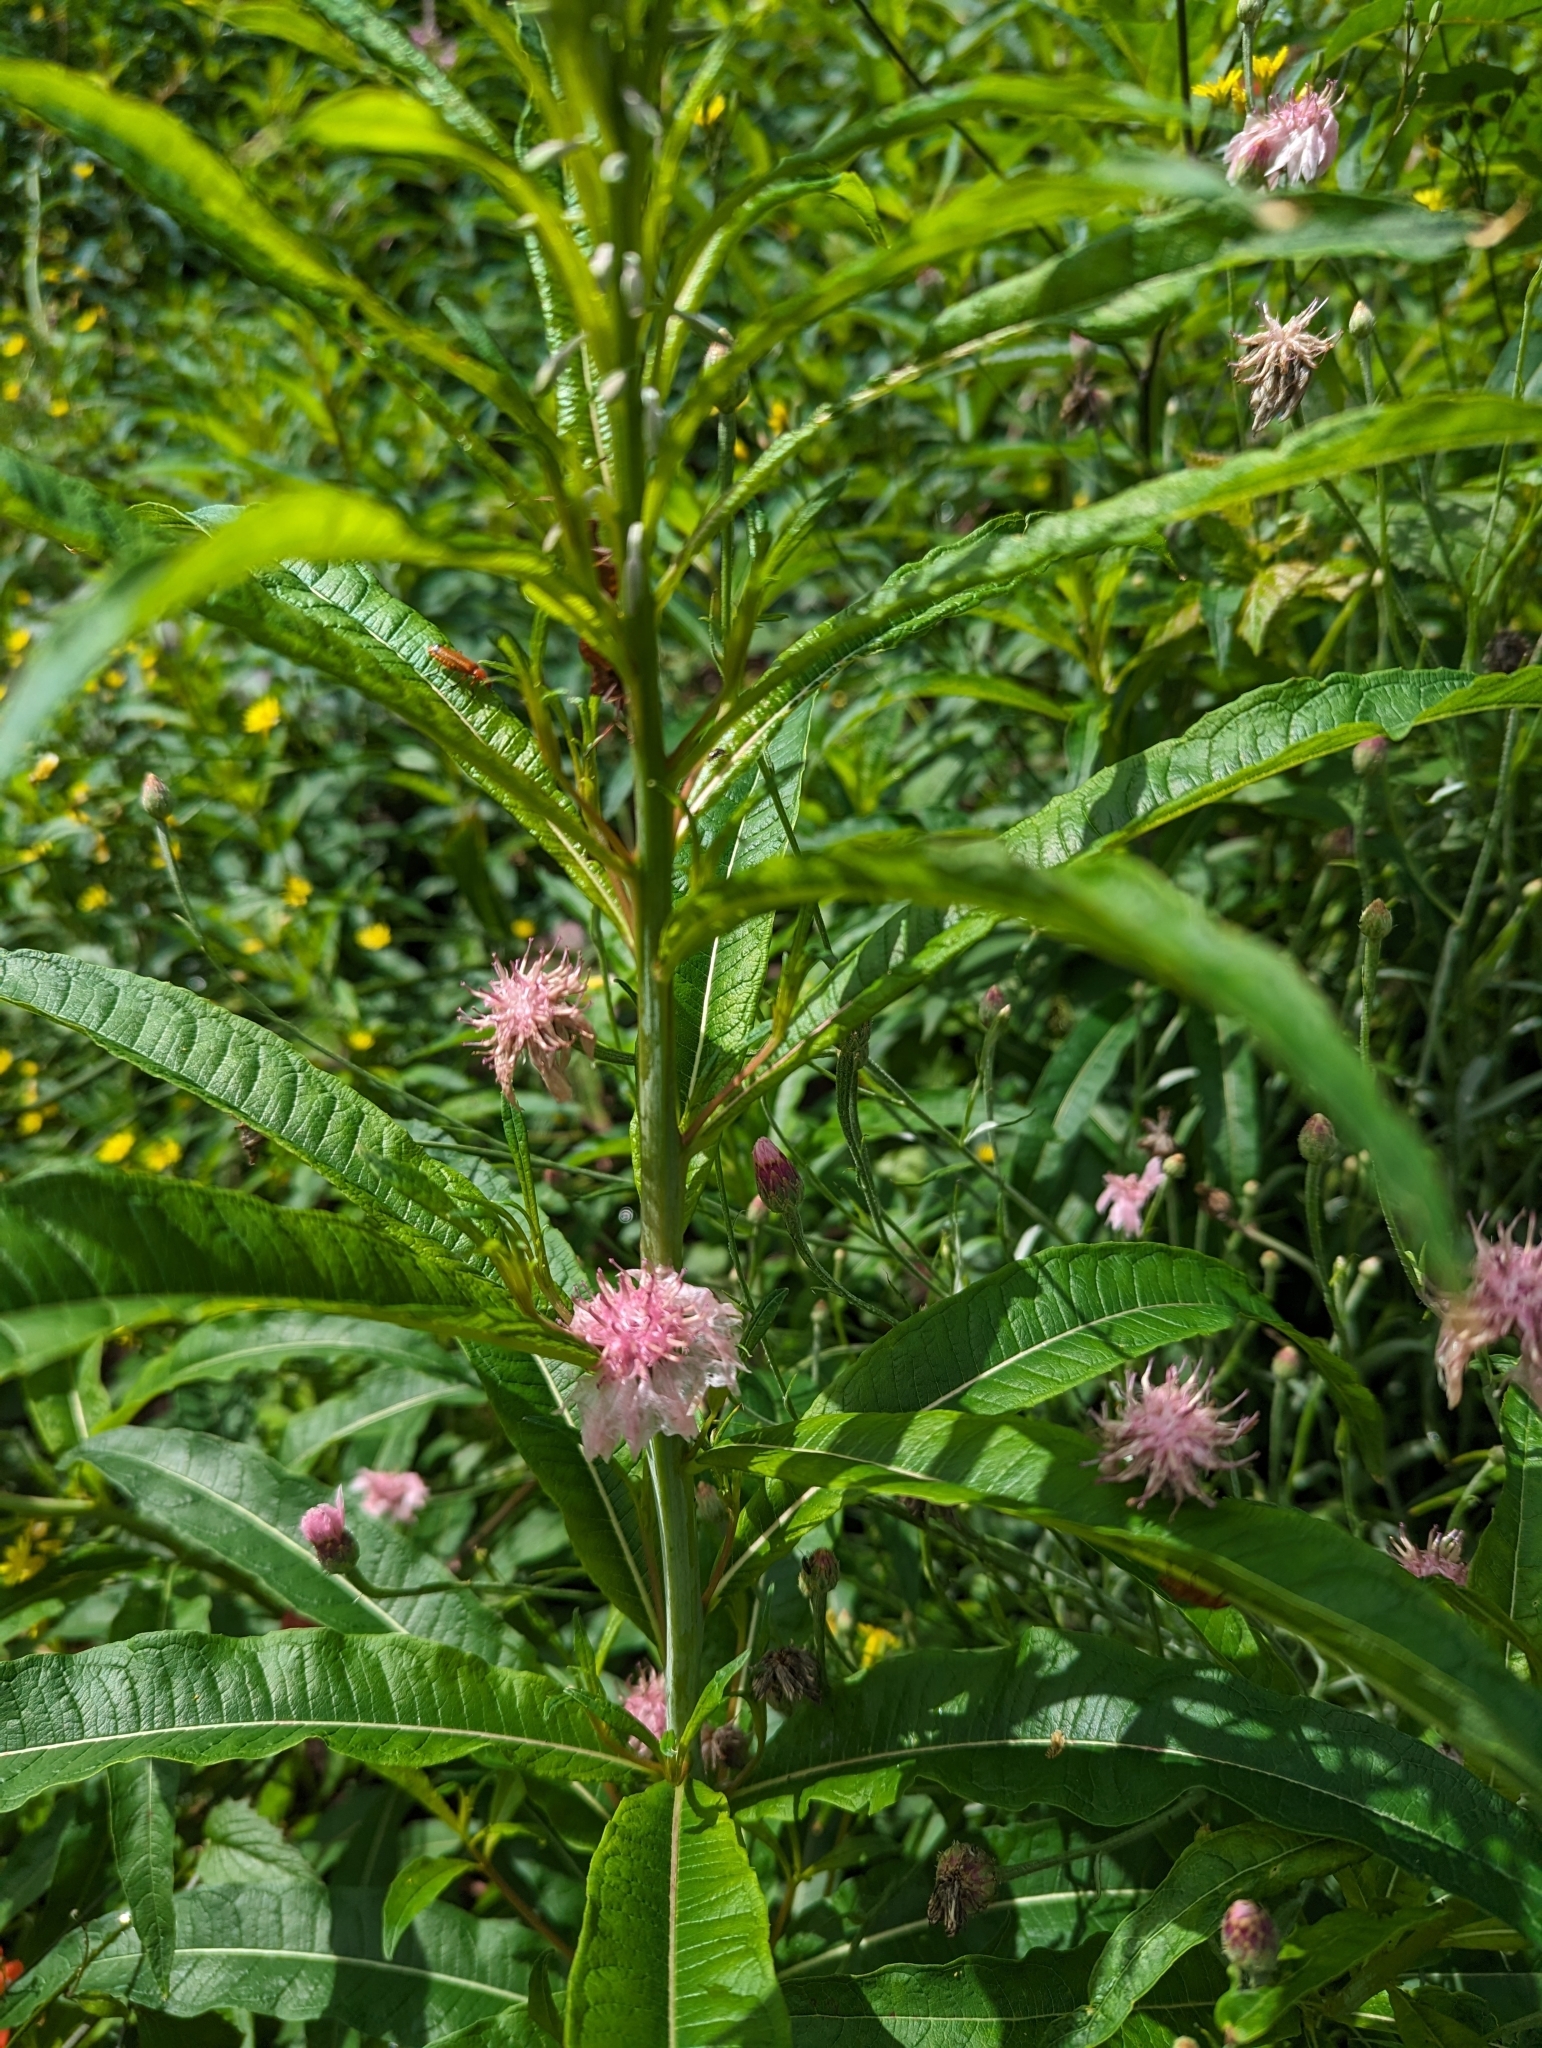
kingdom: Plantae
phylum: Tracheophyta
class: Magnoliopsida
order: Myrtales
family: Onagraceae
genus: Chamaenerion
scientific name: Chamaenerion angustifolium
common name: Fireweed
